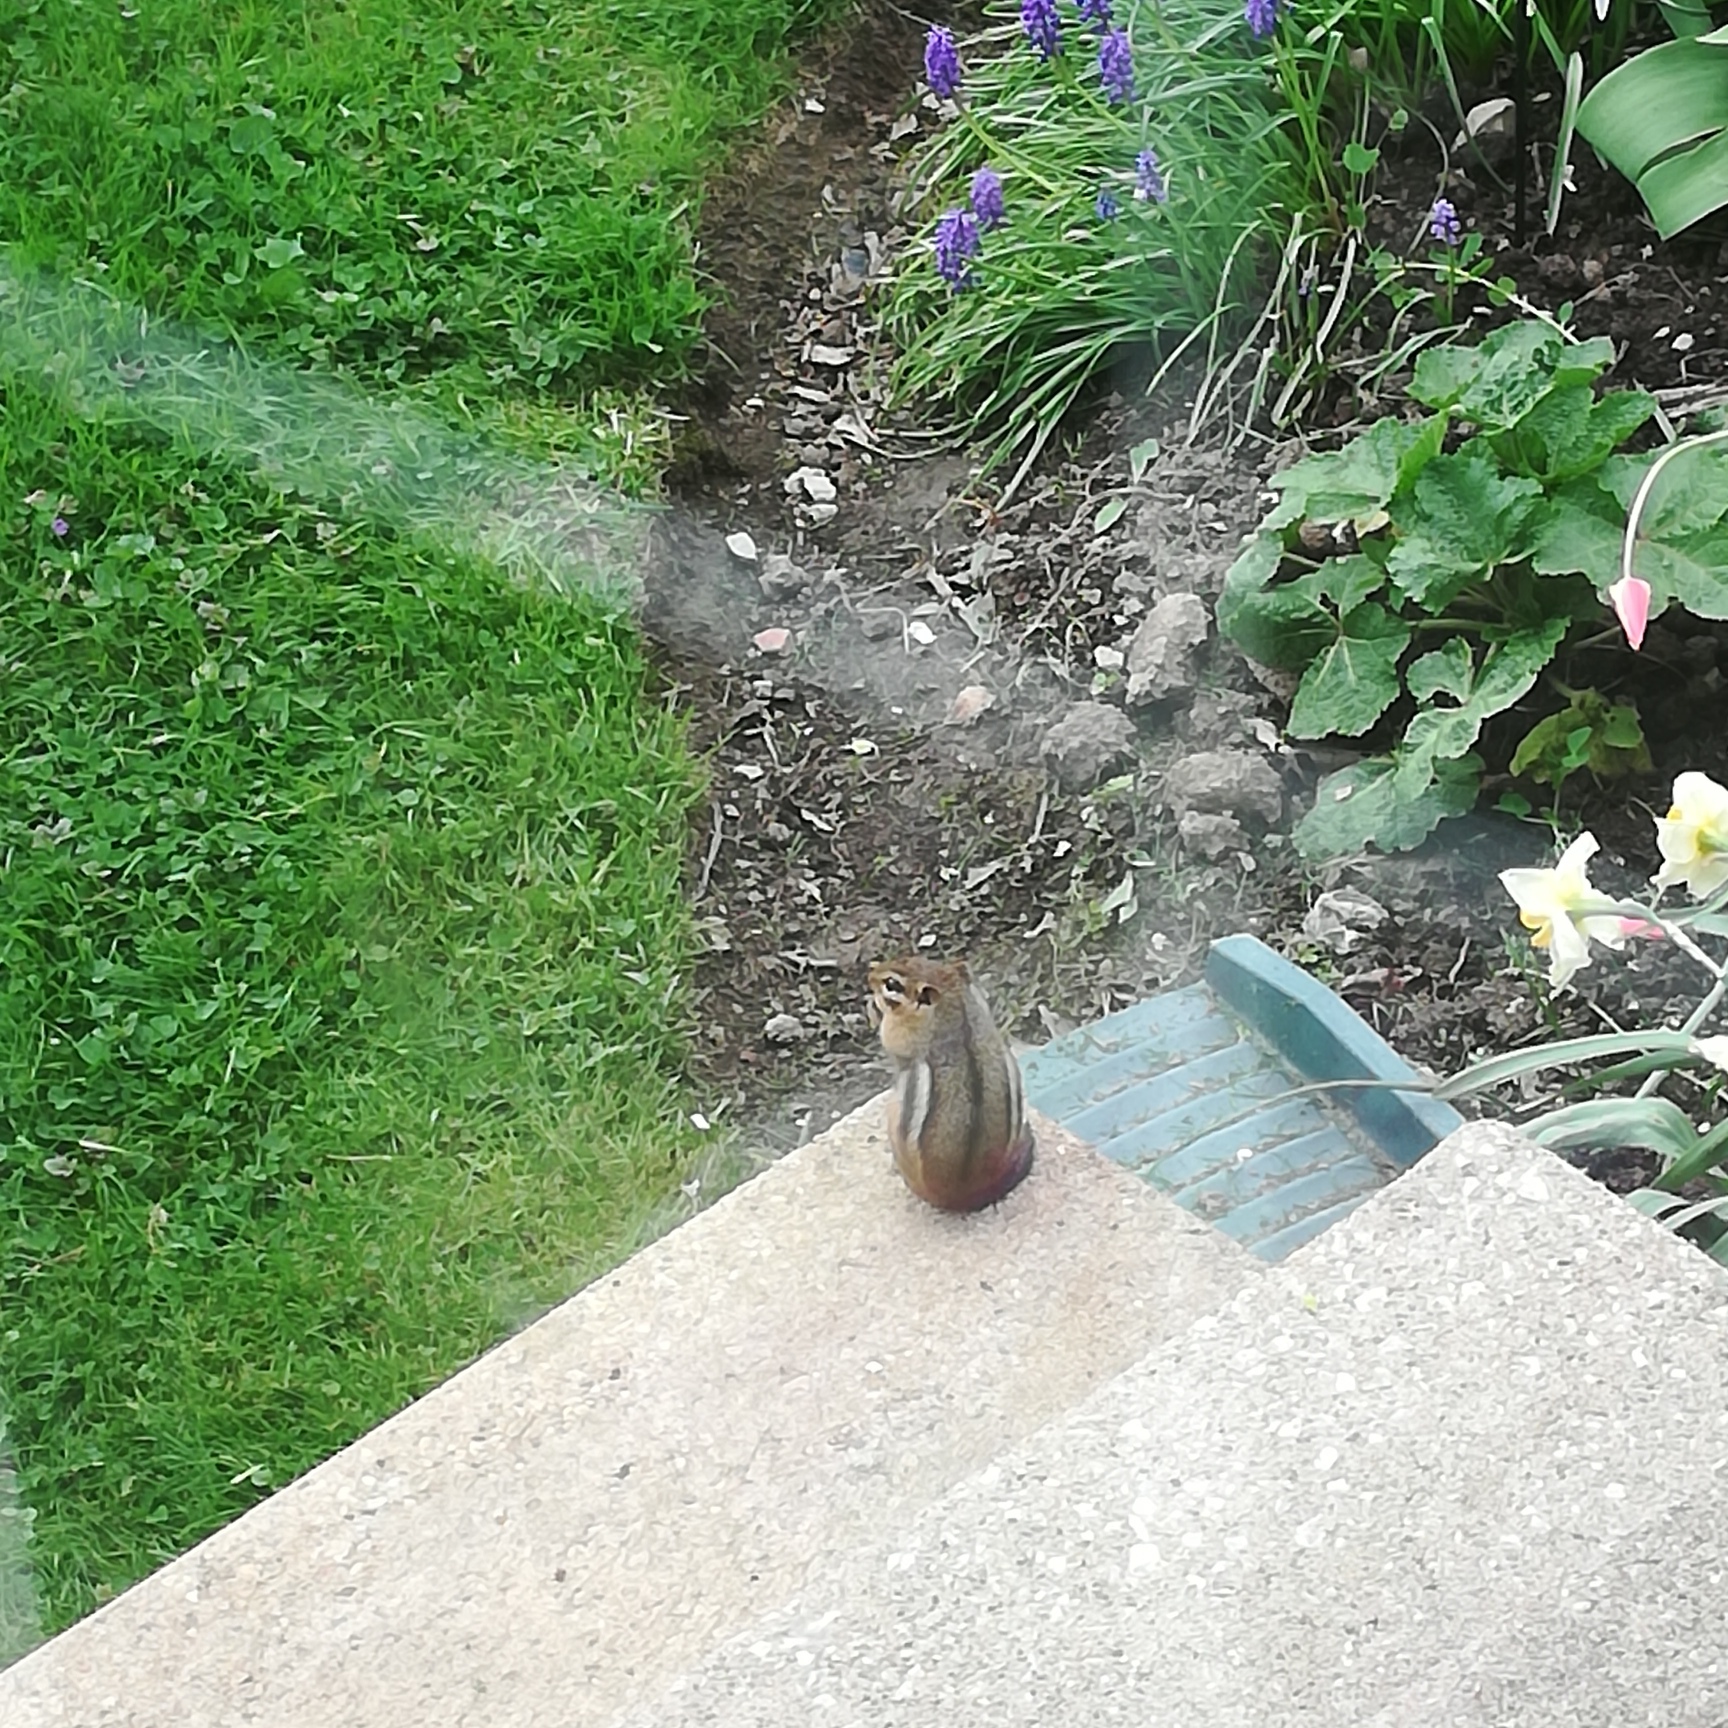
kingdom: Animalia
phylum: Chordata
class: Mammalia
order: Rodentia
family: Sciuridae
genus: Tamias
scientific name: Tamias striatus
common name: Eastern chipmunk
